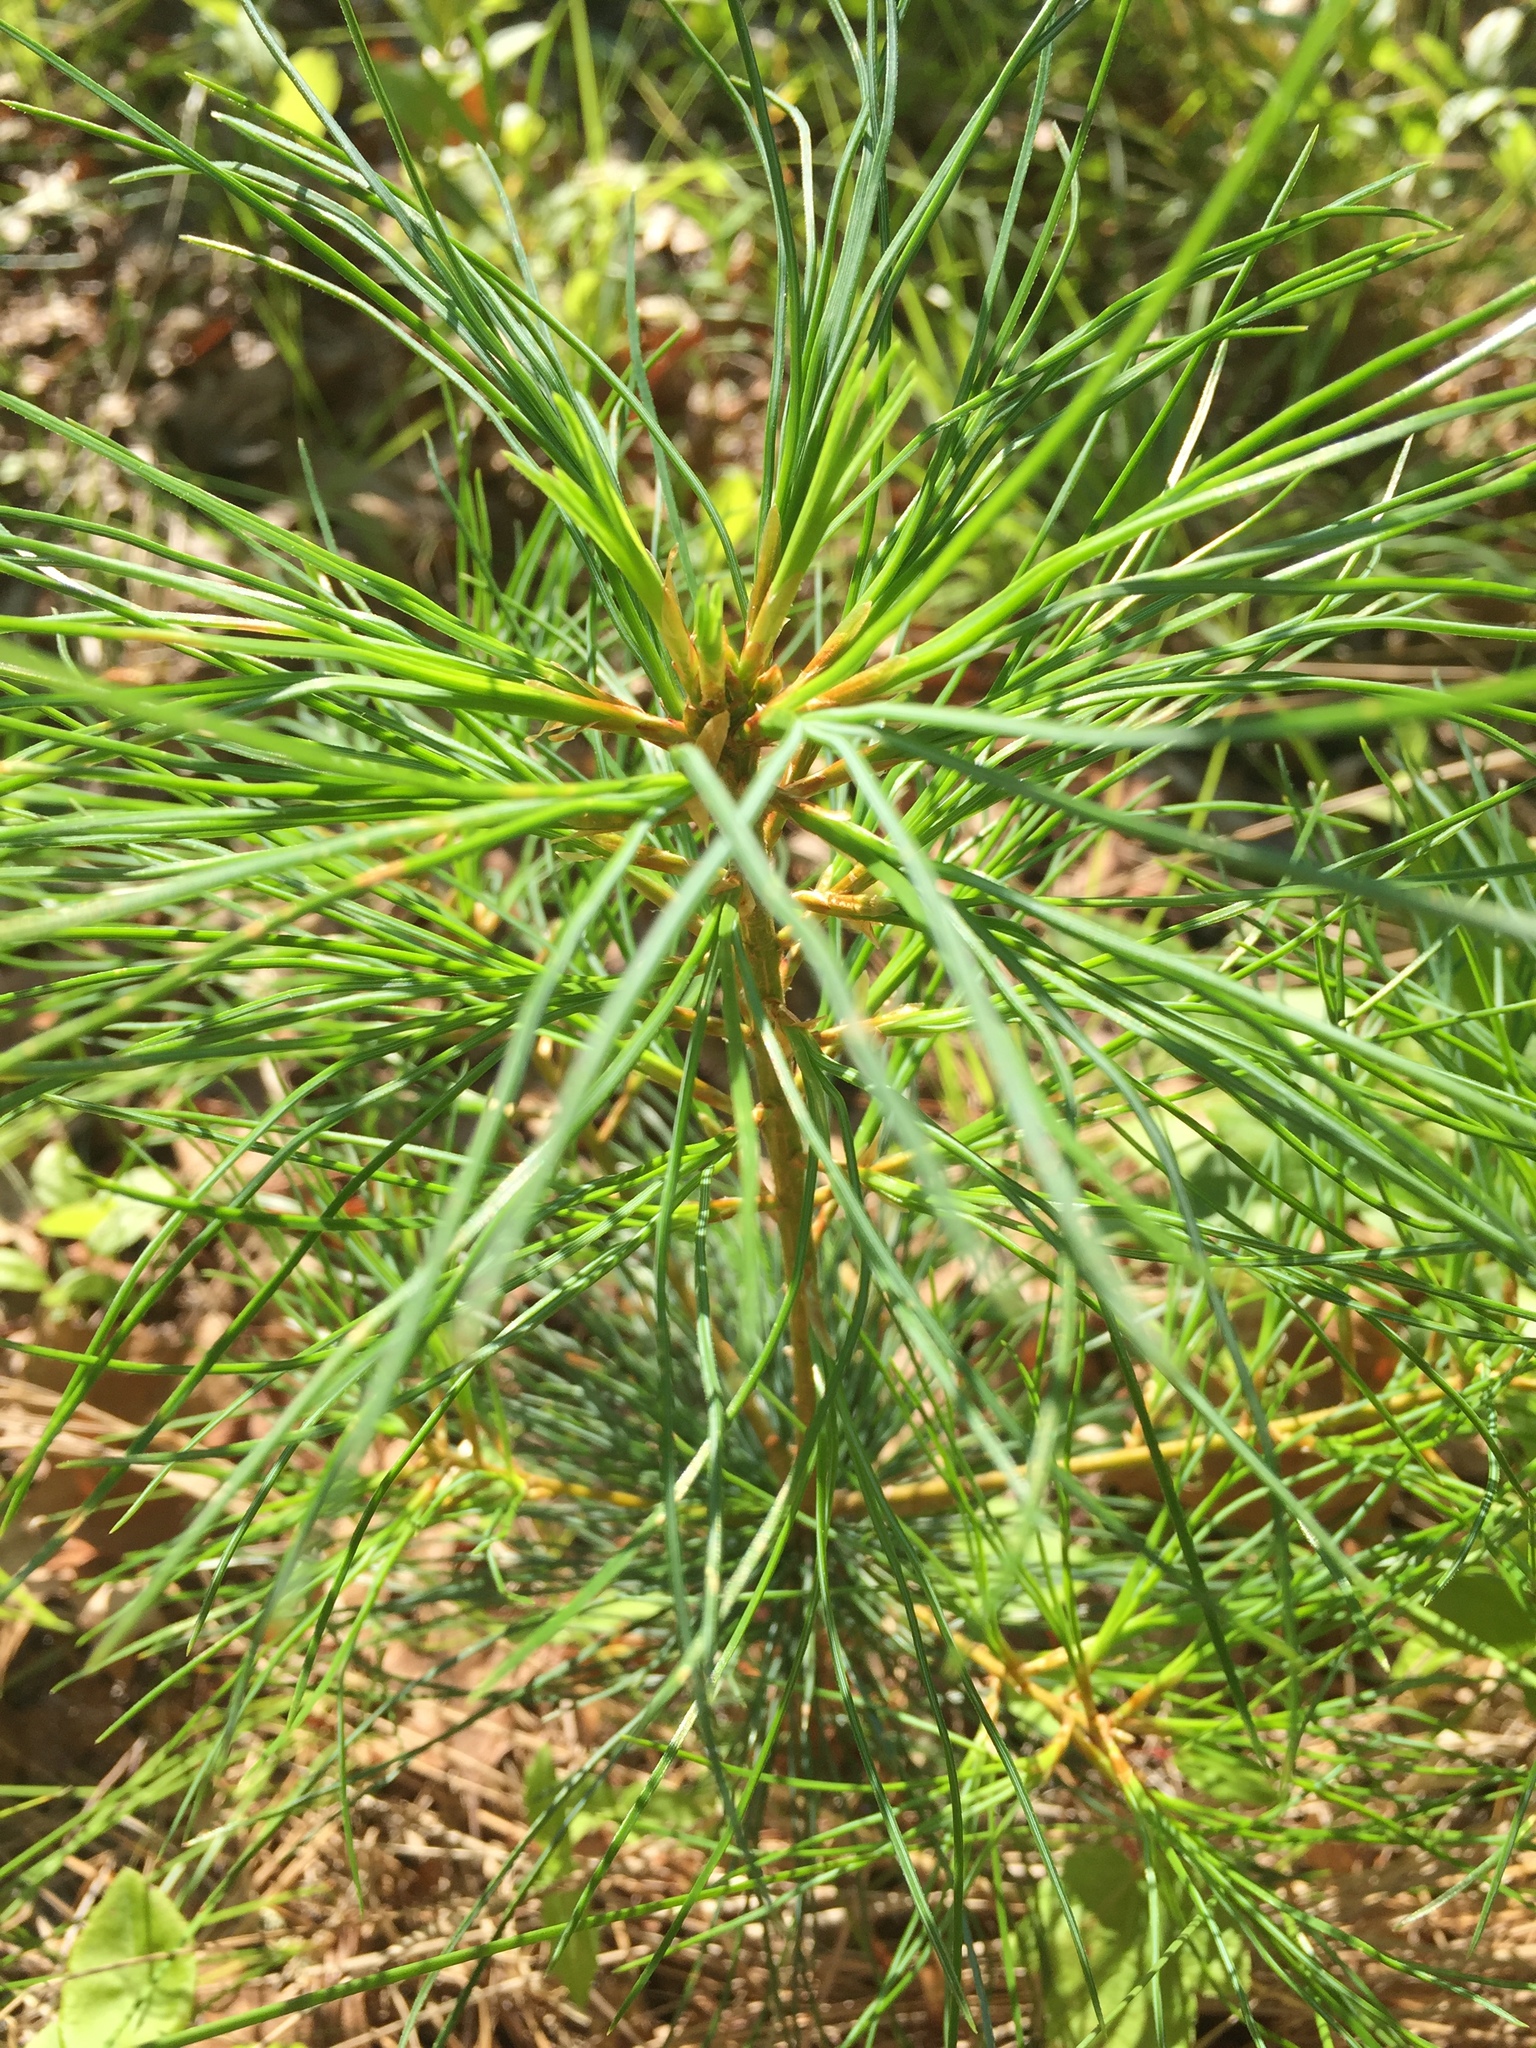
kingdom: Plantae
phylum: Tracheophyta
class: Pinopsida
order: Pinales
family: Pinaceae
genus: Pinus
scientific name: Pinus strobus
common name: Weymouth pine
